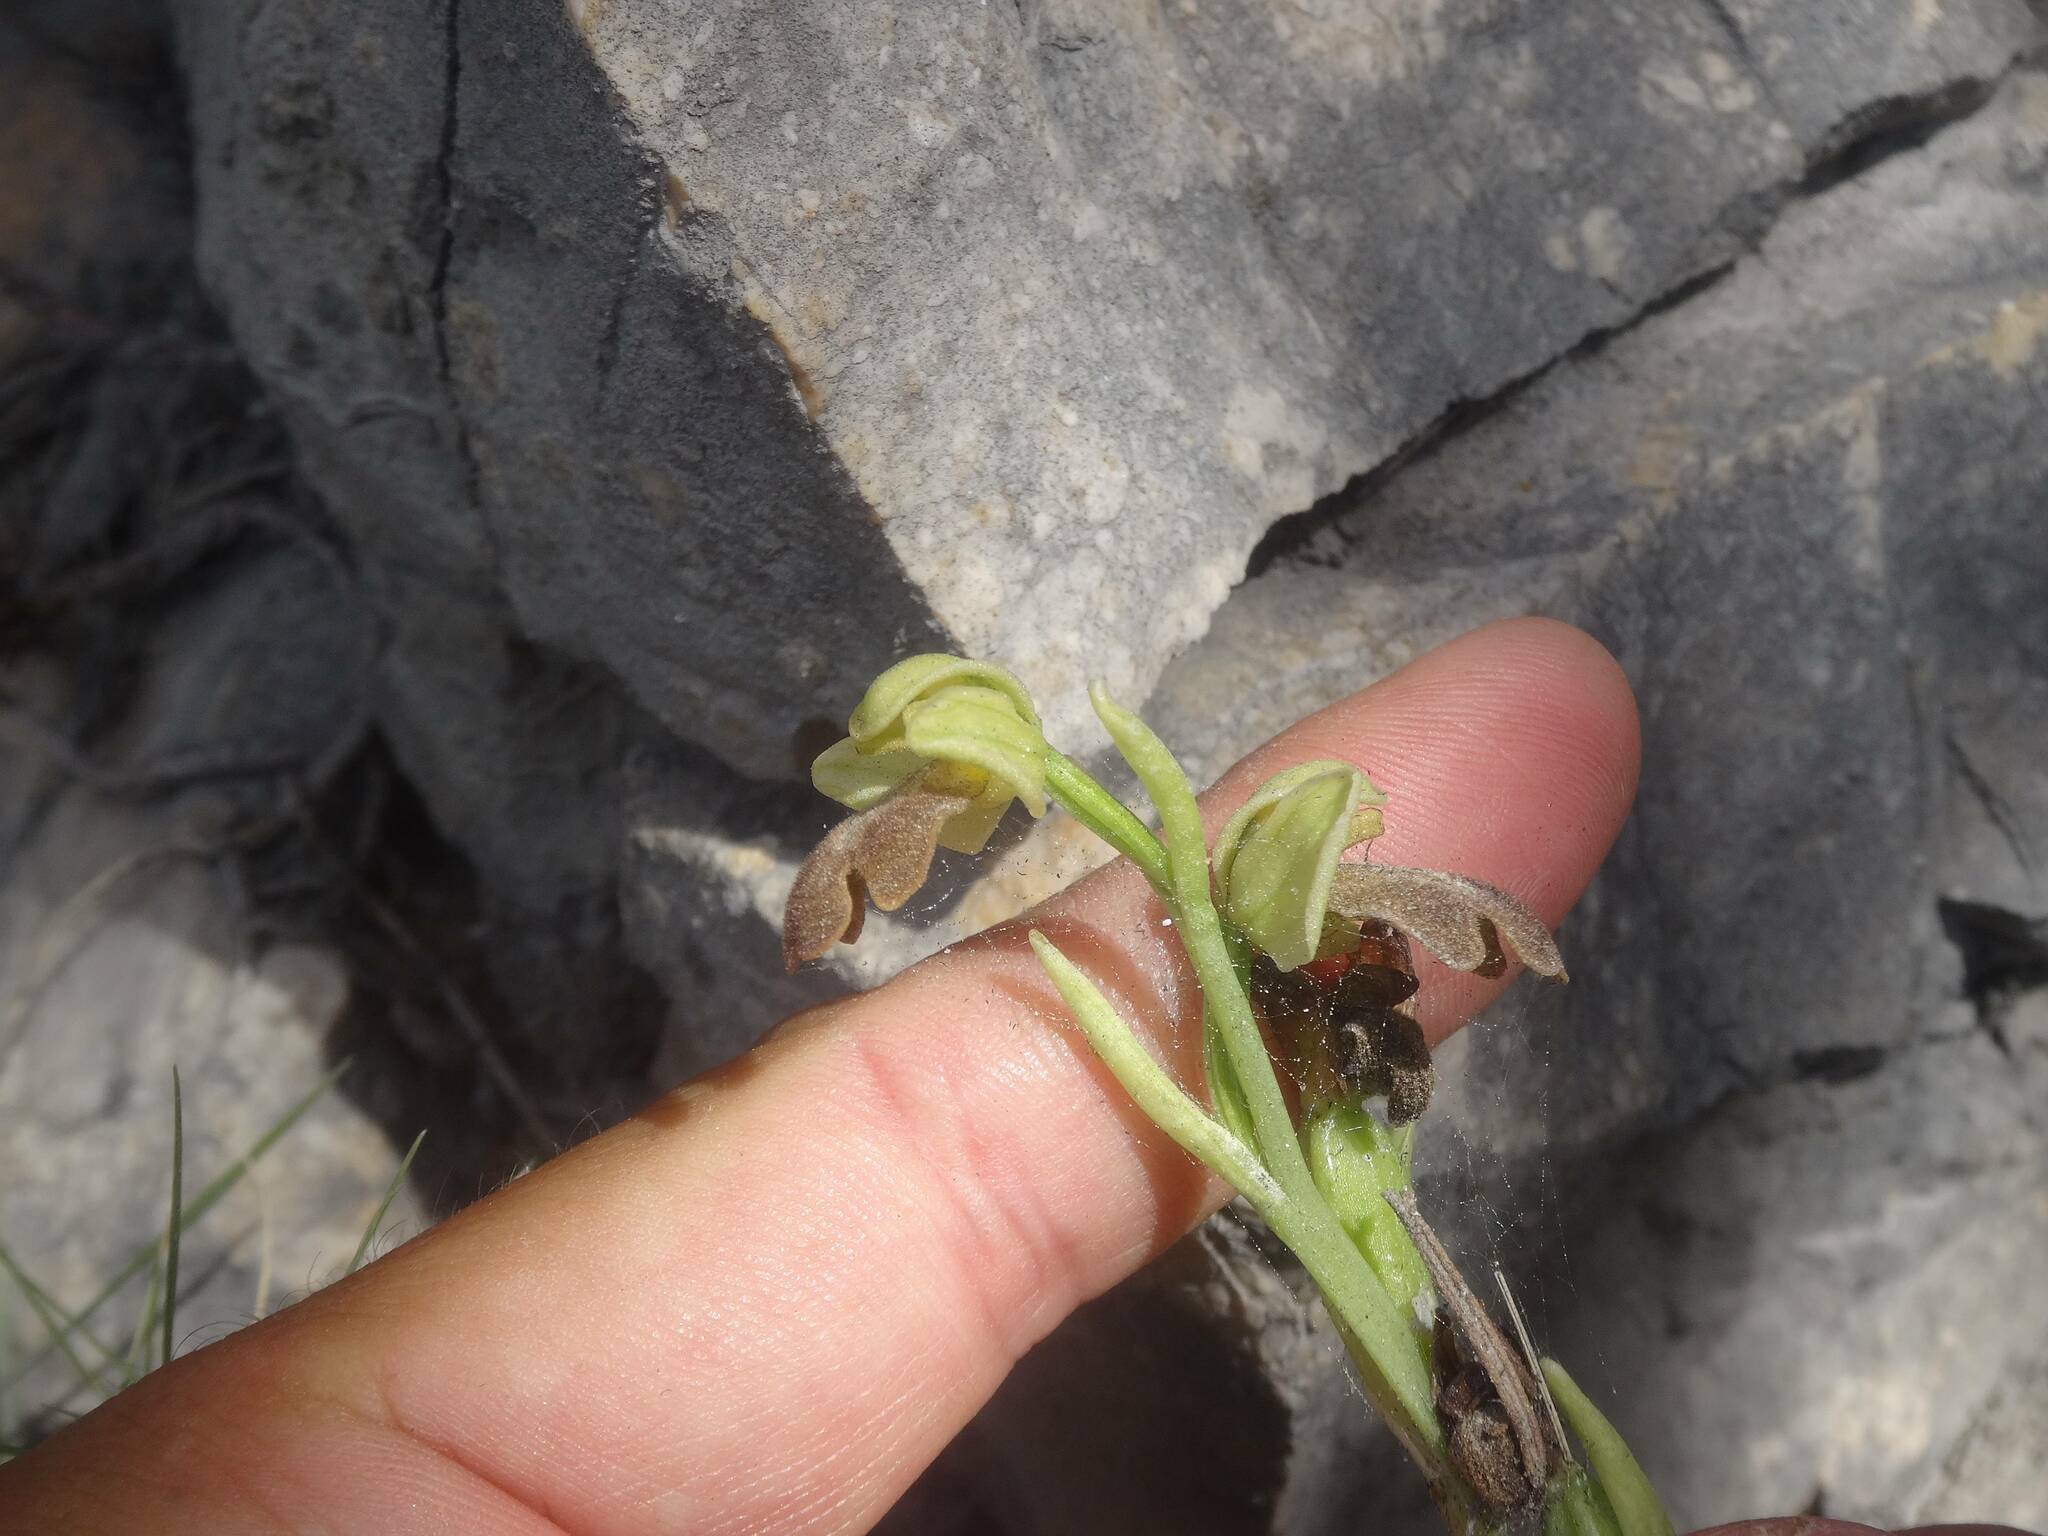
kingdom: Plantae
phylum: Tracheophyta
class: Liliopsida
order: Asparagales
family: Orchidaceae
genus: Ophrys
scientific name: Ophrys fusca
